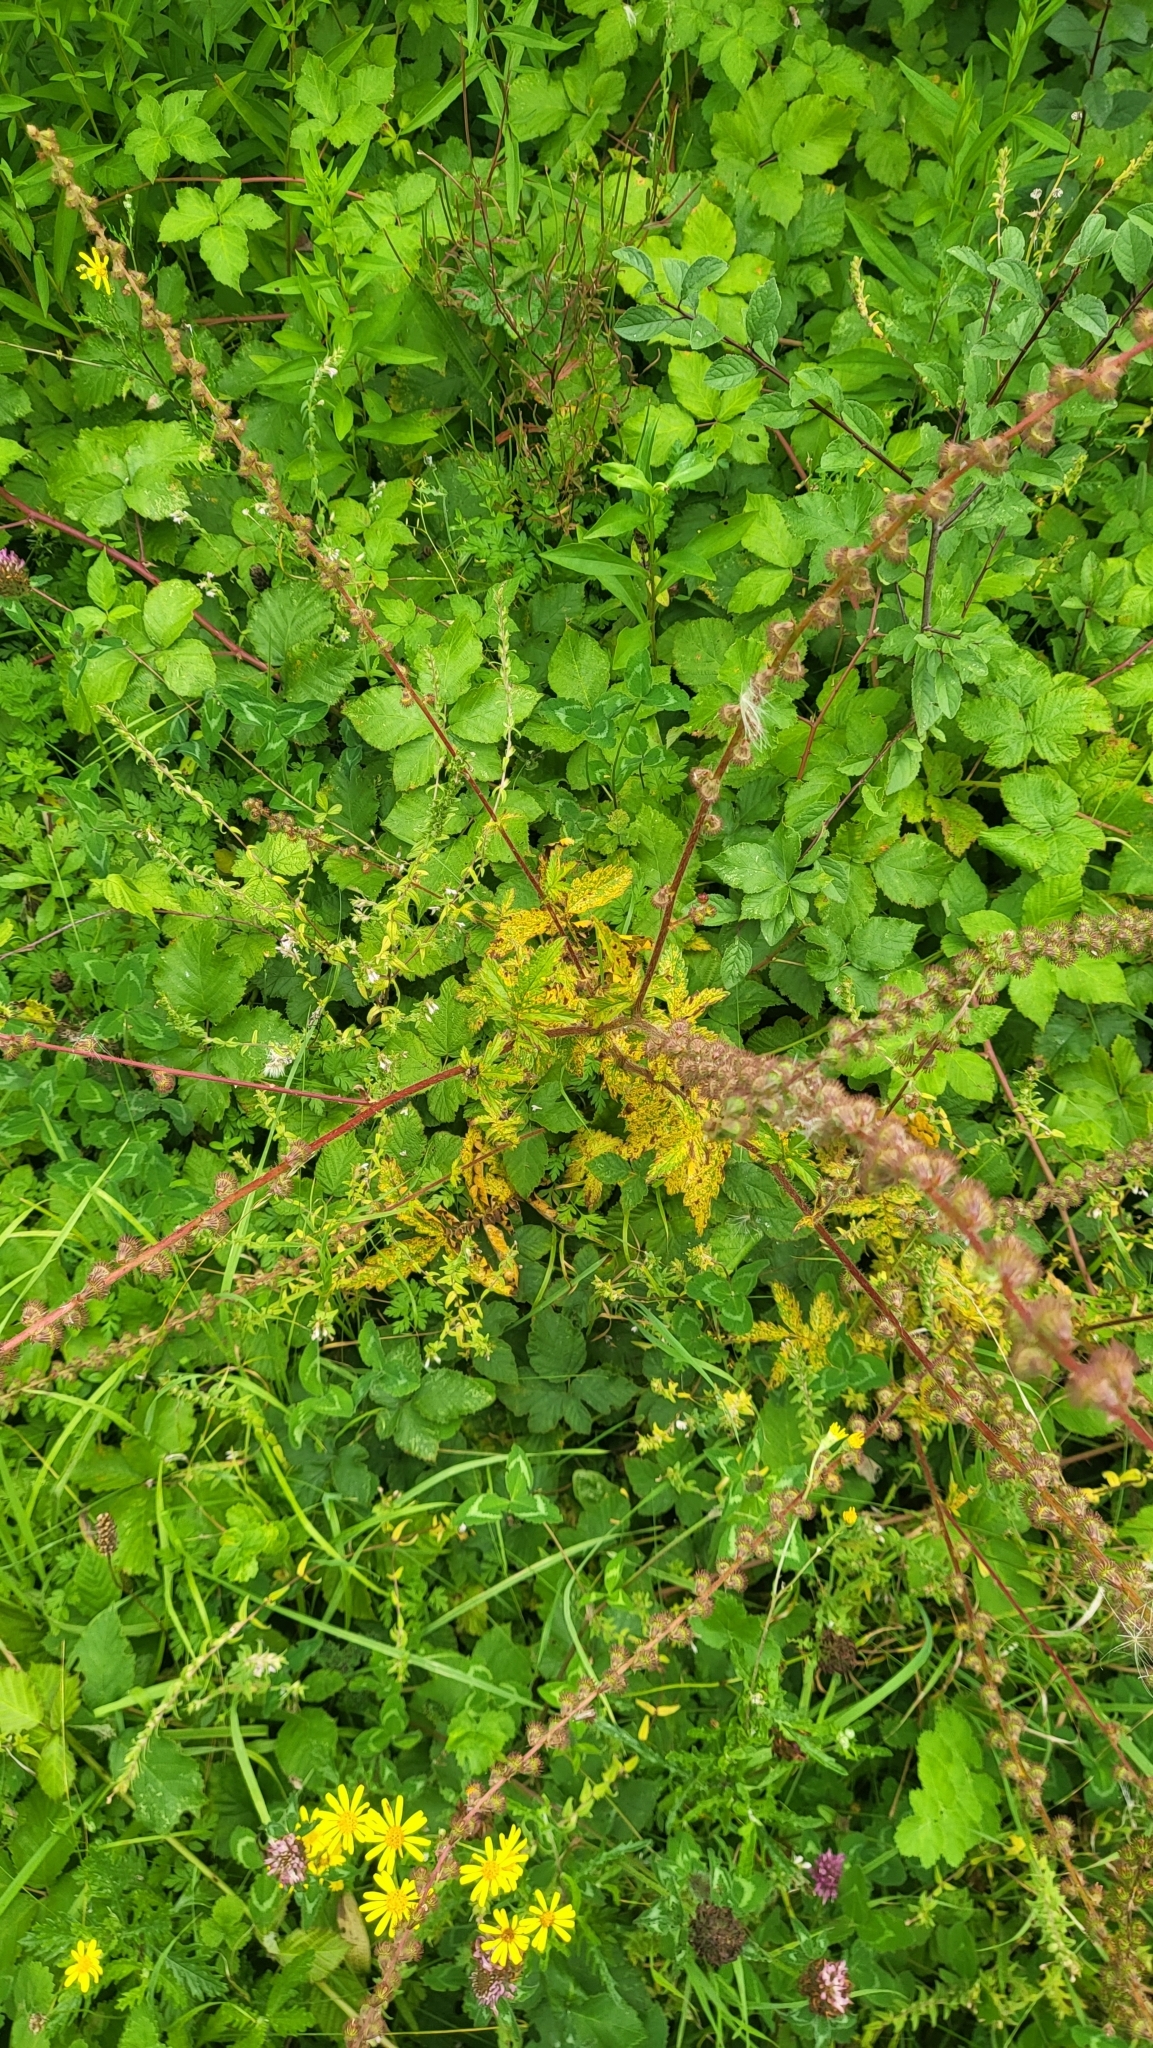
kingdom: Fungi
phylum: Basidiomycota
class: Pucciniomycetes
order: Pucciniales
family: Cronartiaceae
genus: Quasipucciniastrum
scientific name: Quasipucciniastrum ochraceum
